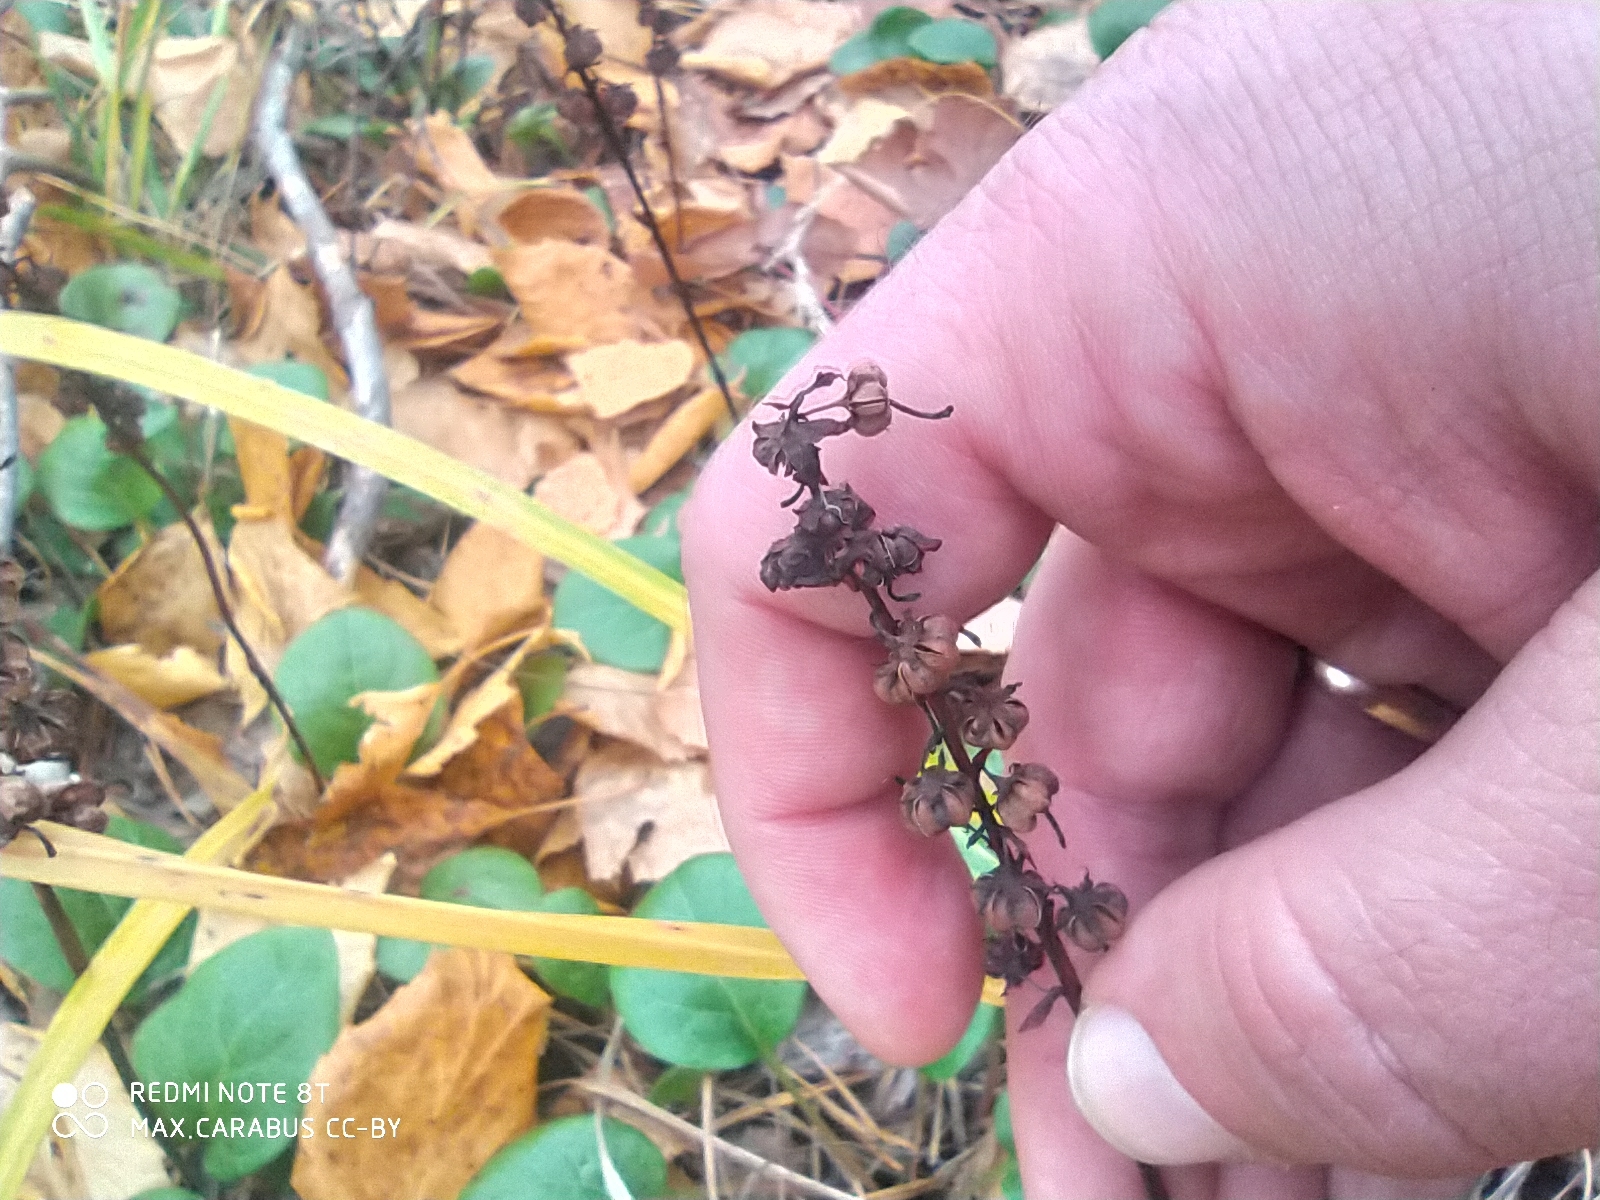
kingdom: Plantae
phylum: Tracheophyta
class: Magnoliopsida
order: Ericales
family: Ericaceae
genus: Pyrola
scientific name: Pyrola rotundifolia
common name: Round-leaved wintergreen
